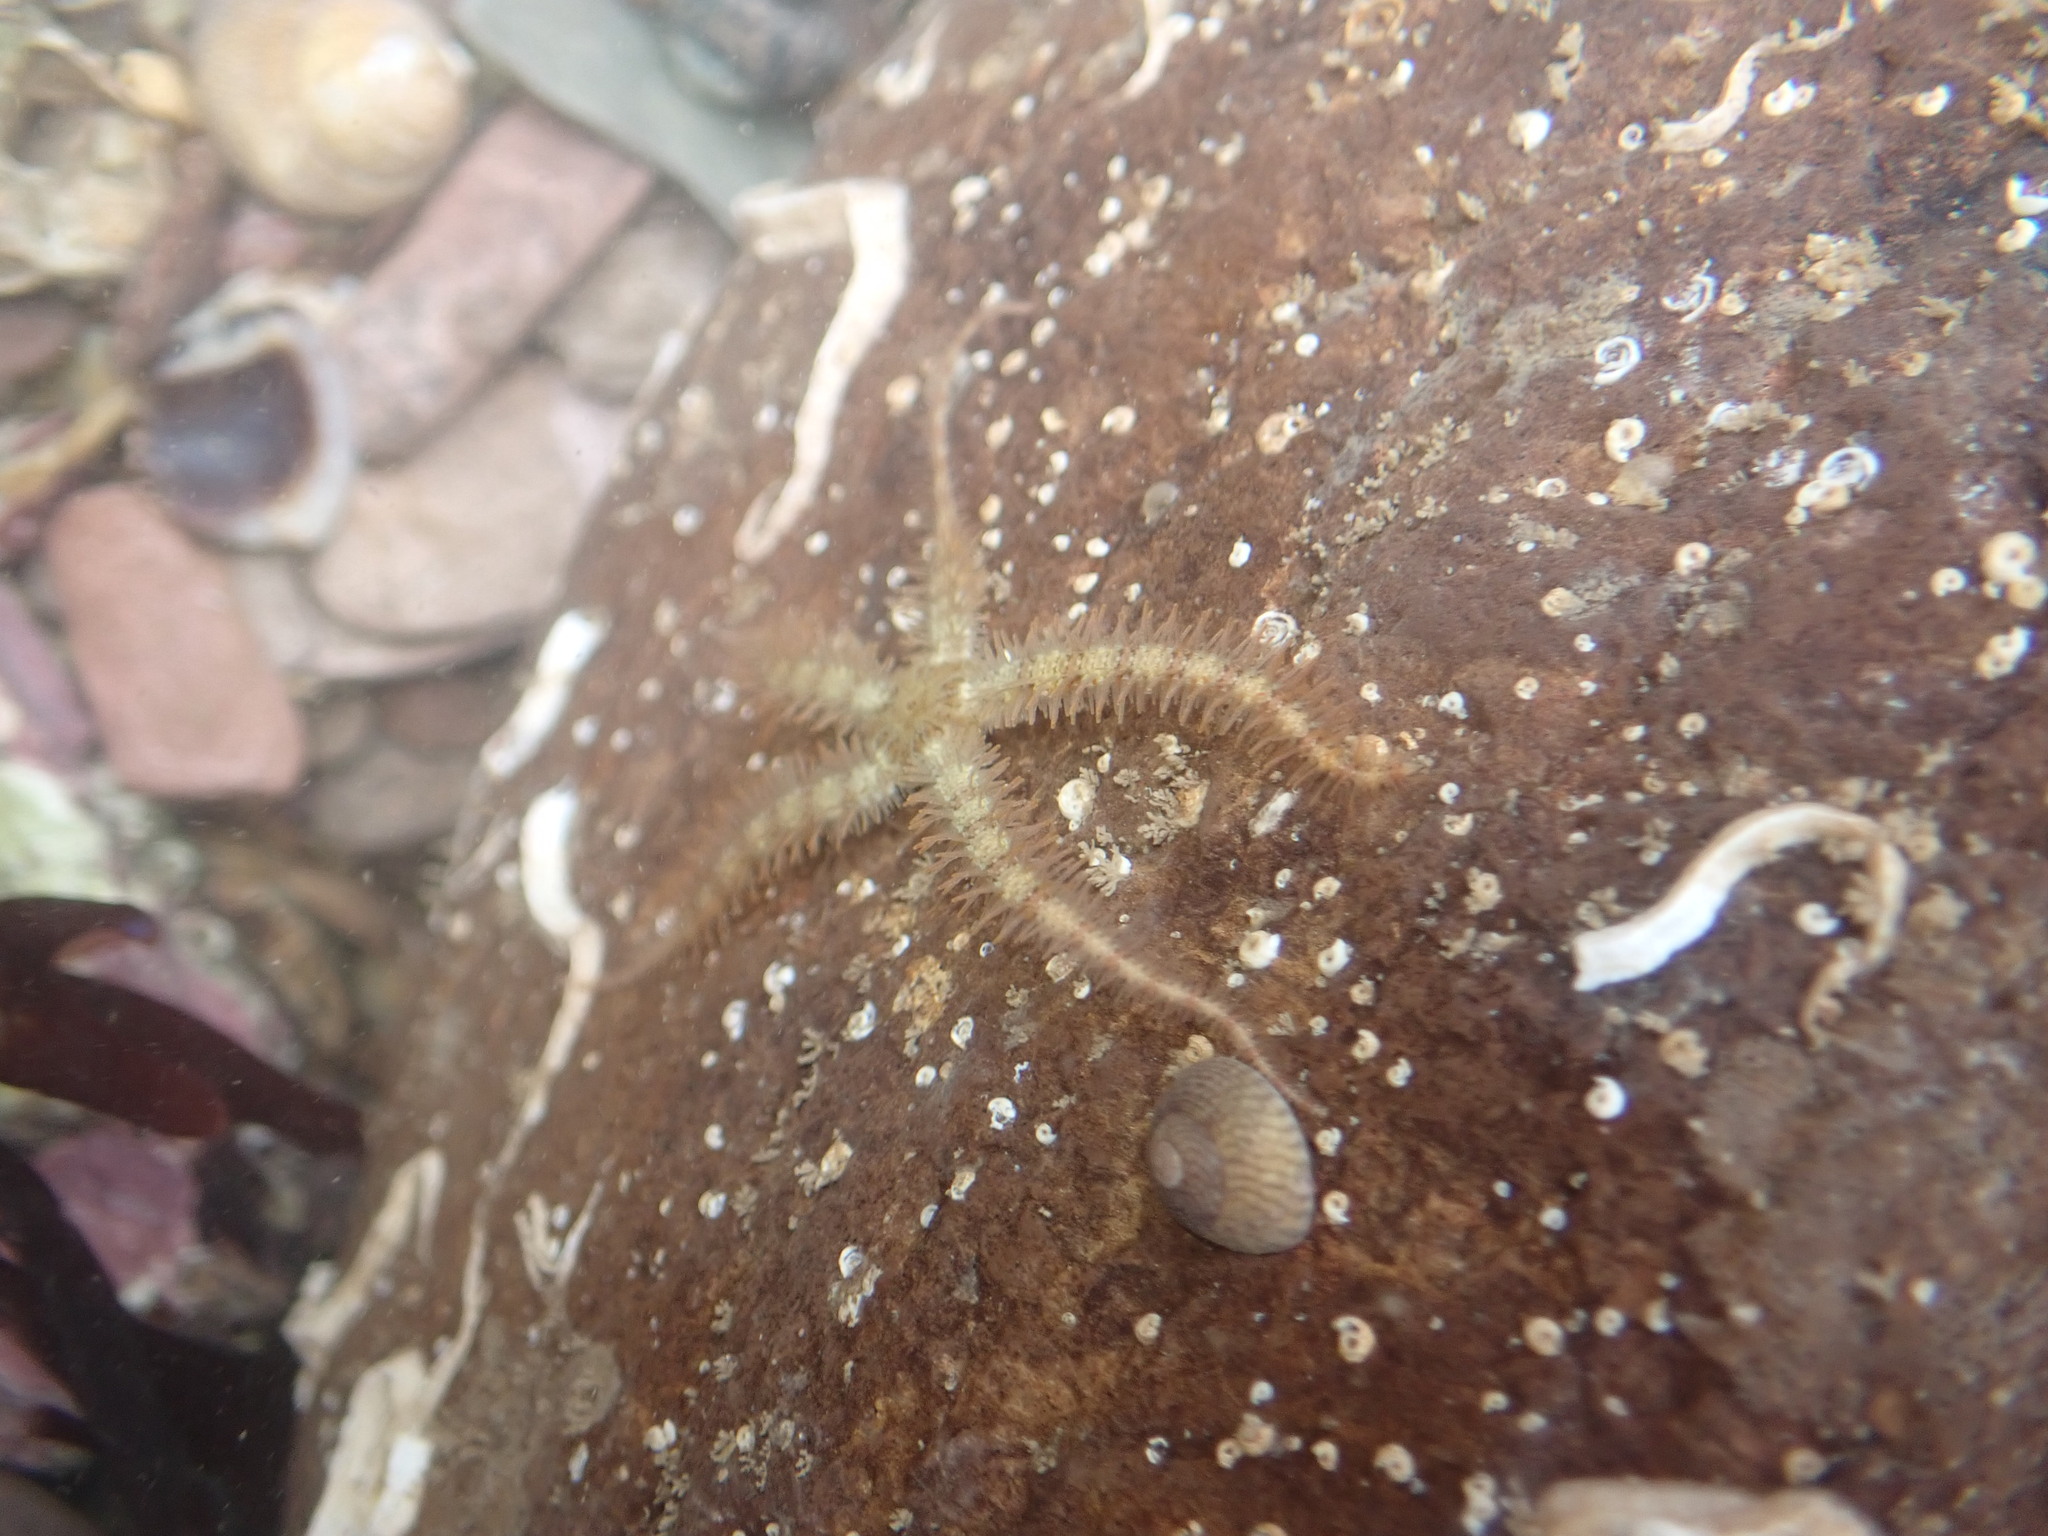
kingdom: Animalia
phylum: Echinodermata
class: Ophiuroidea
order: Amphilepidida
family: Ophiotrichidae
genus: Ophiothrix
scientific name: Ophiothrix fragilis
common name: Common brittlestar
